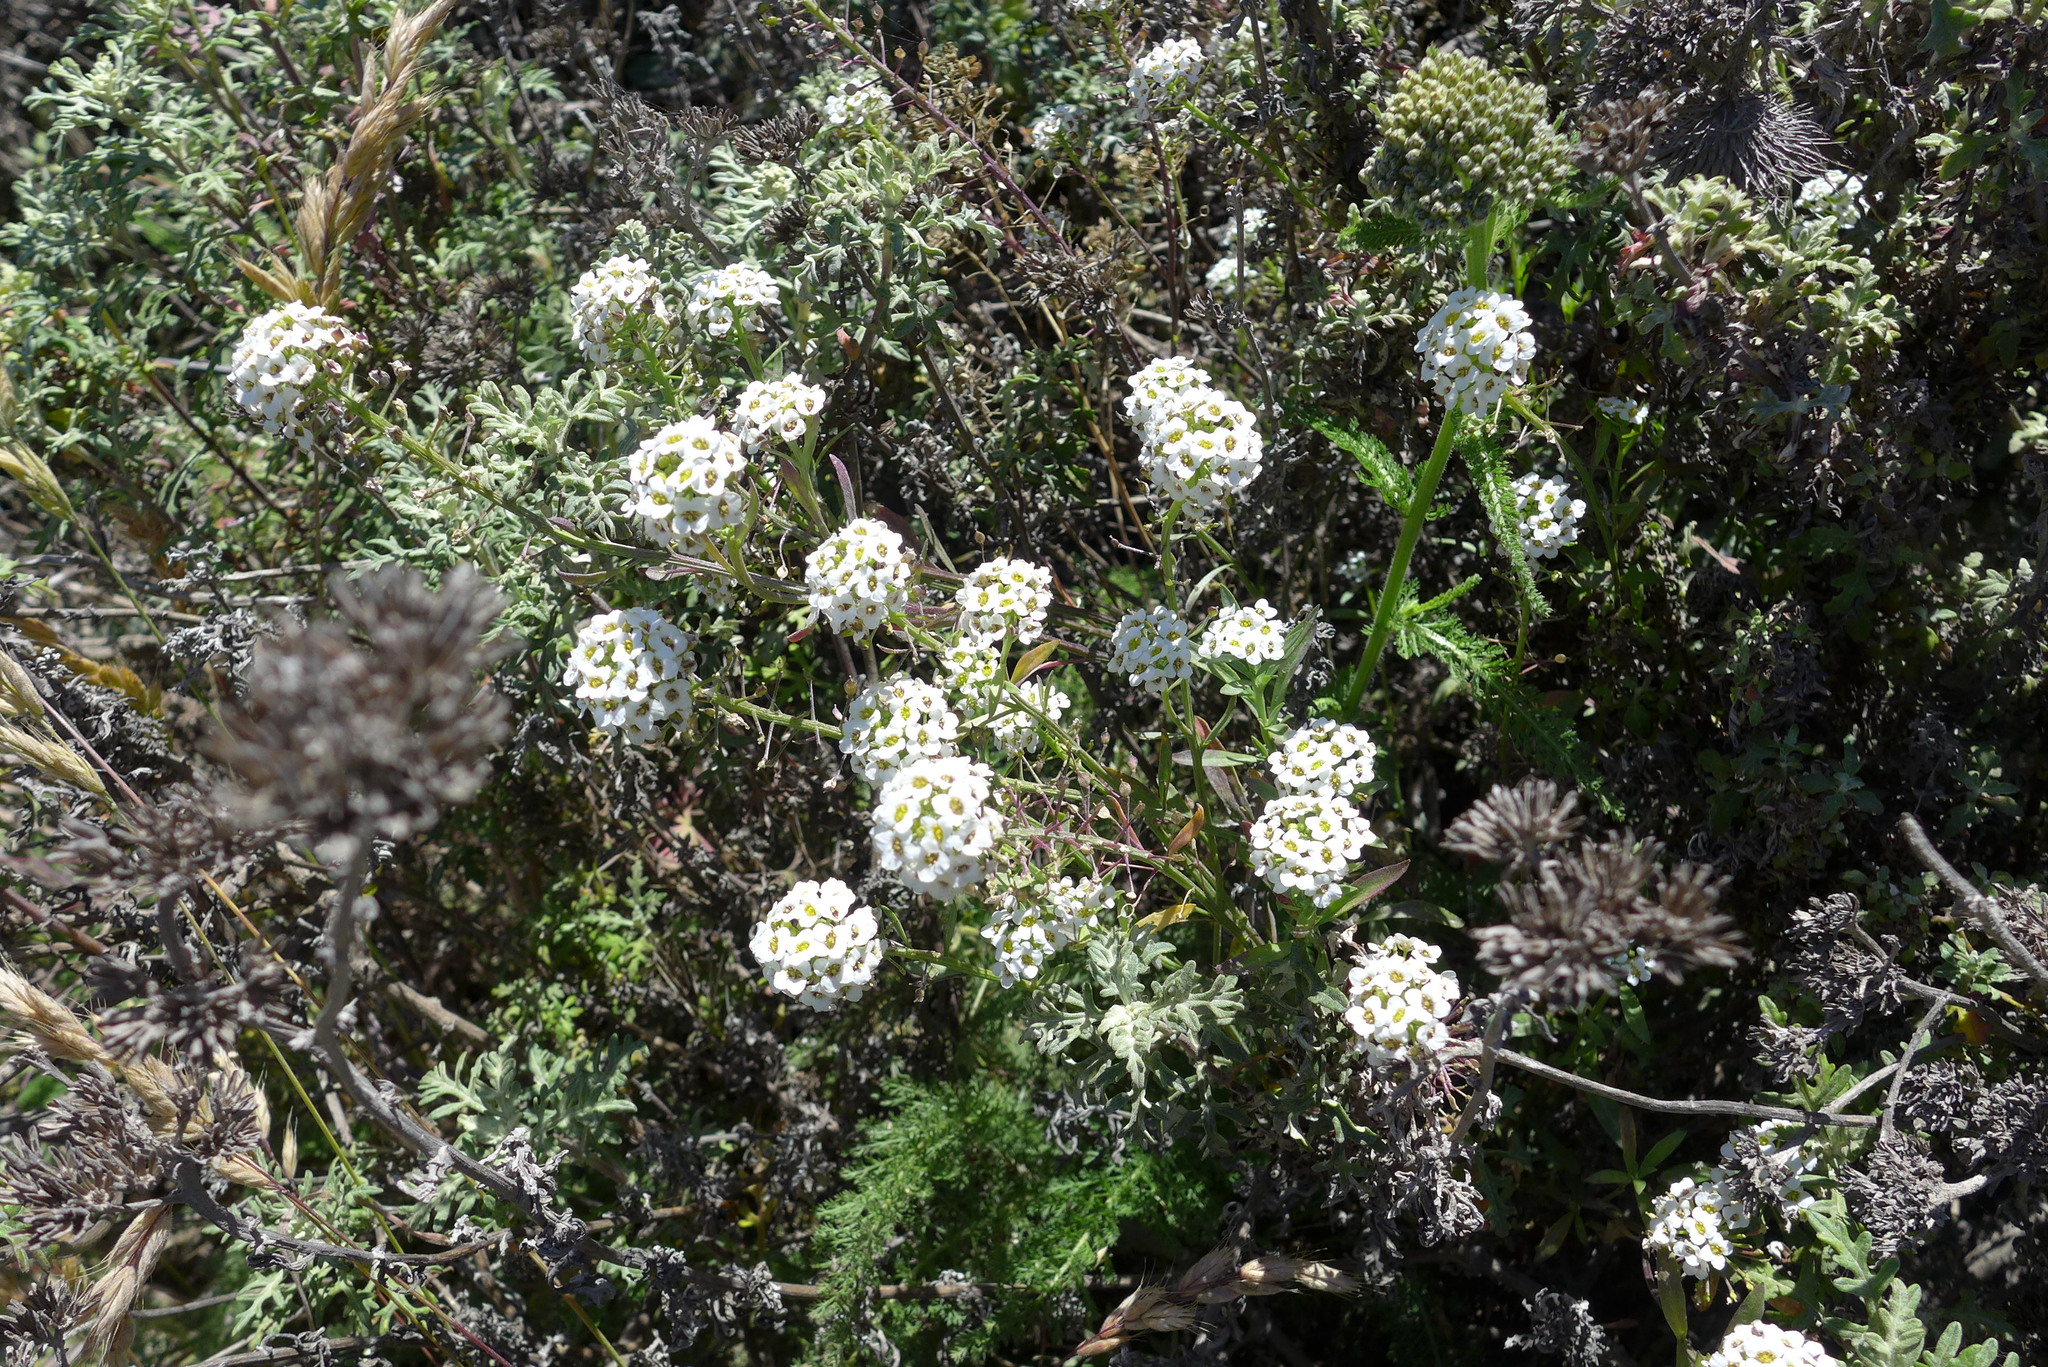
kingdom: Plantae
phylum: Tracheophyta
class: Magnoliopsida
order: Brassicales
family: Brassicaceae
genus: Lobularia
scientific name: Lobularia maritima
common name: Sweet alison
